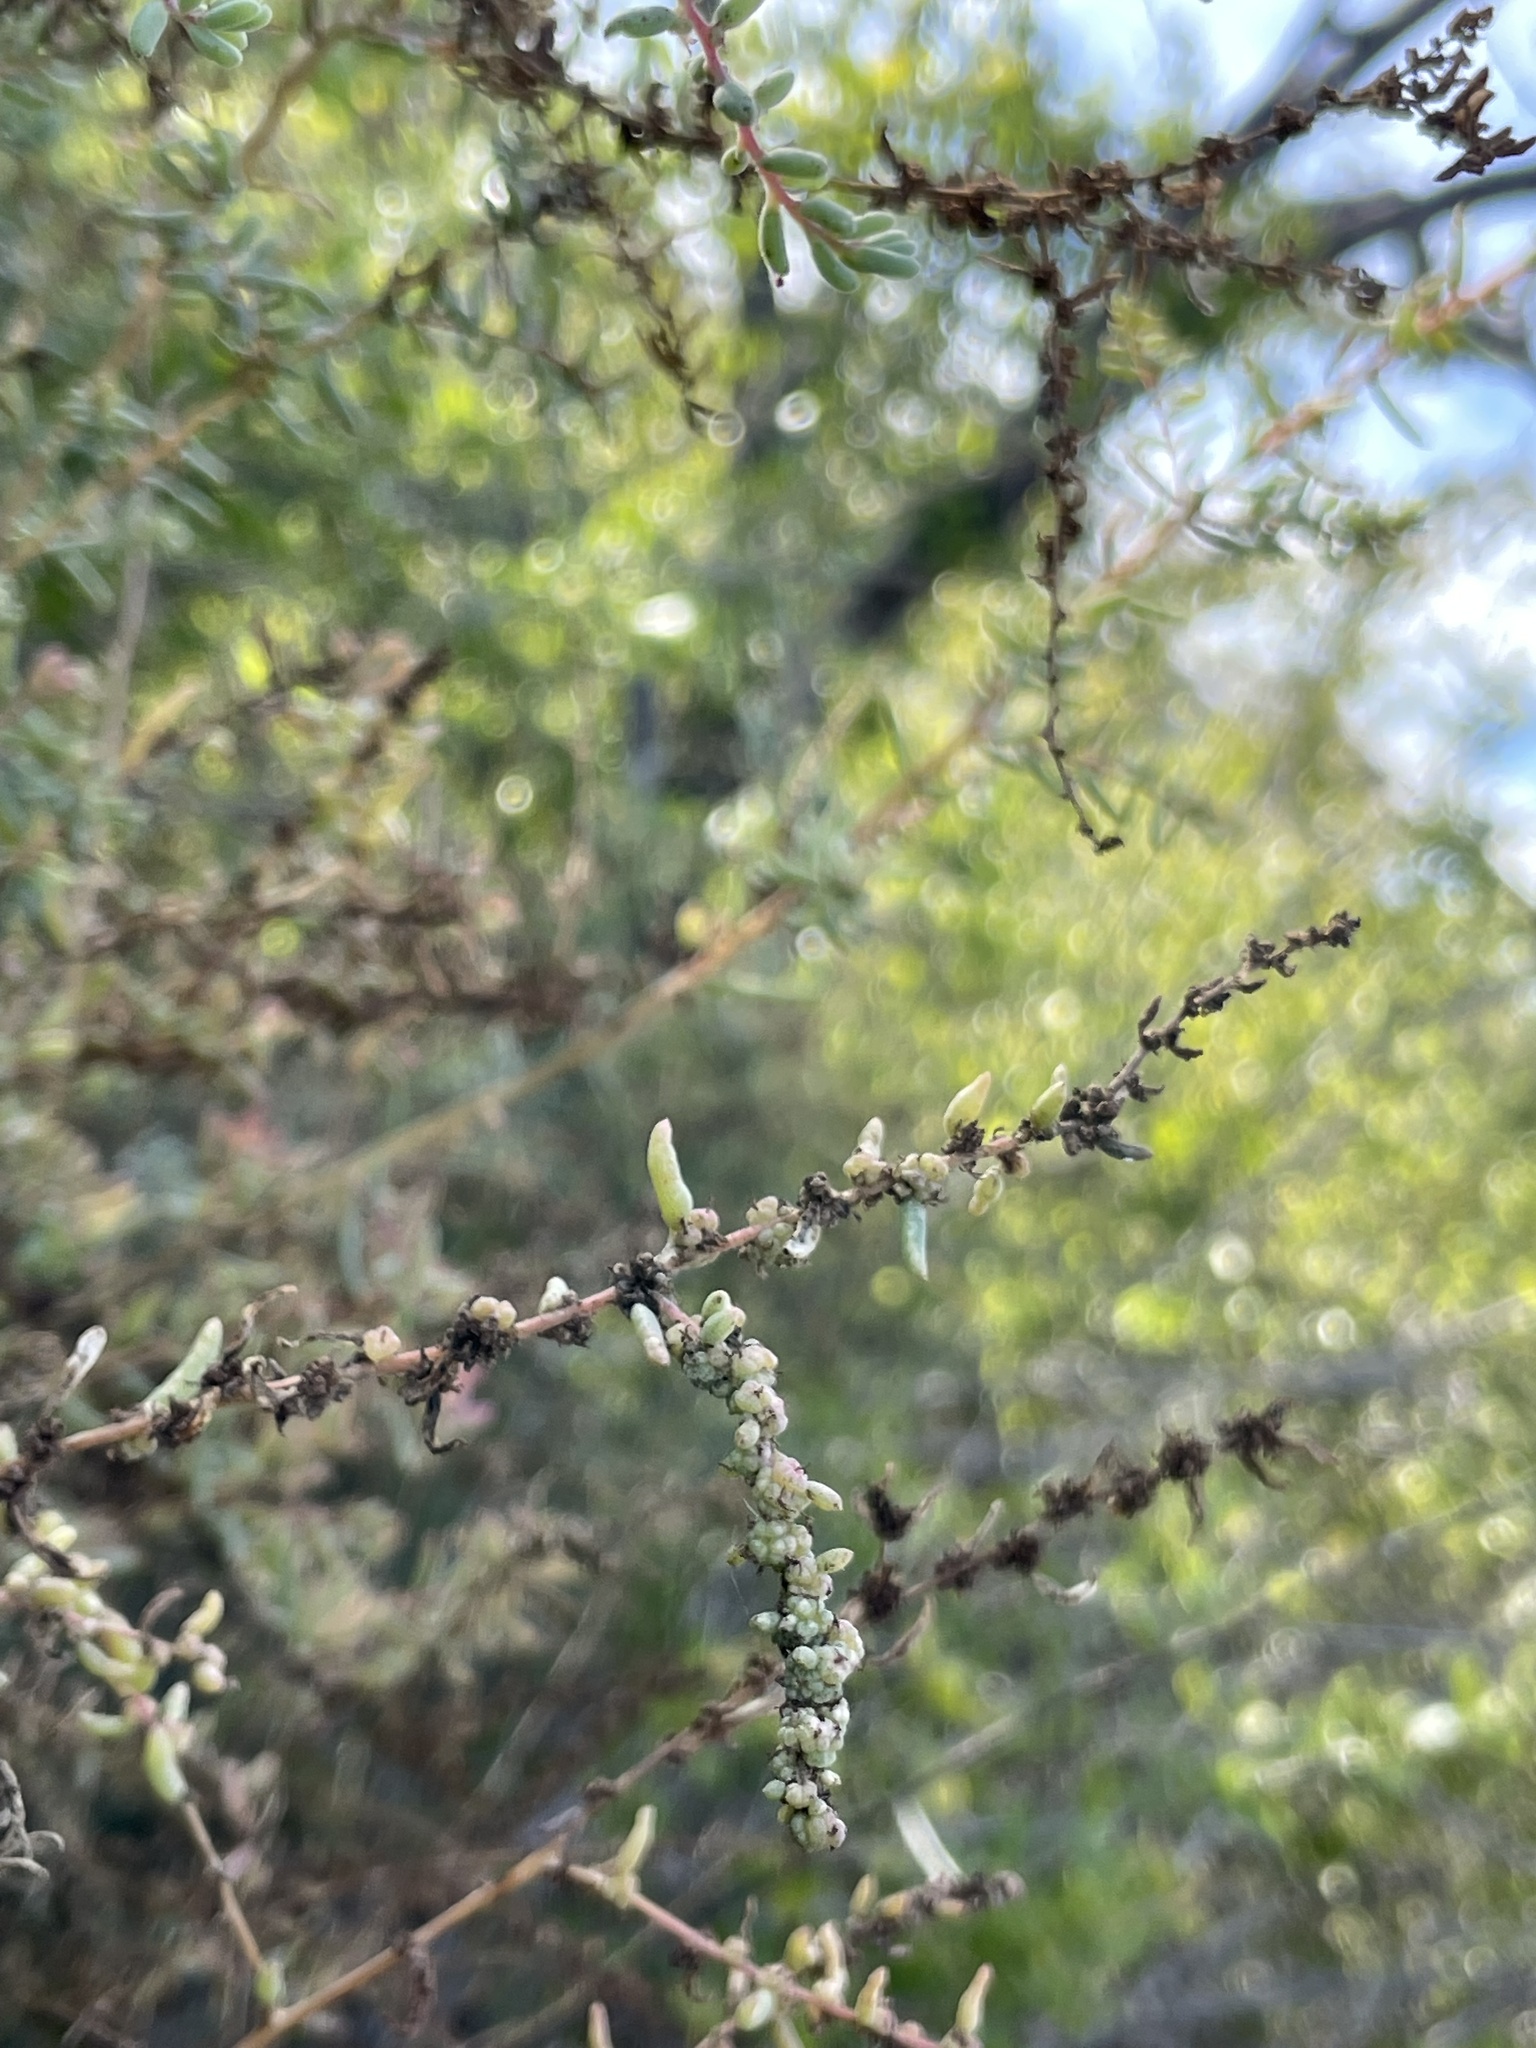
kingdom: Plantae
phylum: Tracheophyta
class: Magnoliopsida
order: Caryophyllales
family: Amaranthaceae
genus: Suaeda
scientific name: Suaeda nigra
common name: Bush seepweed
